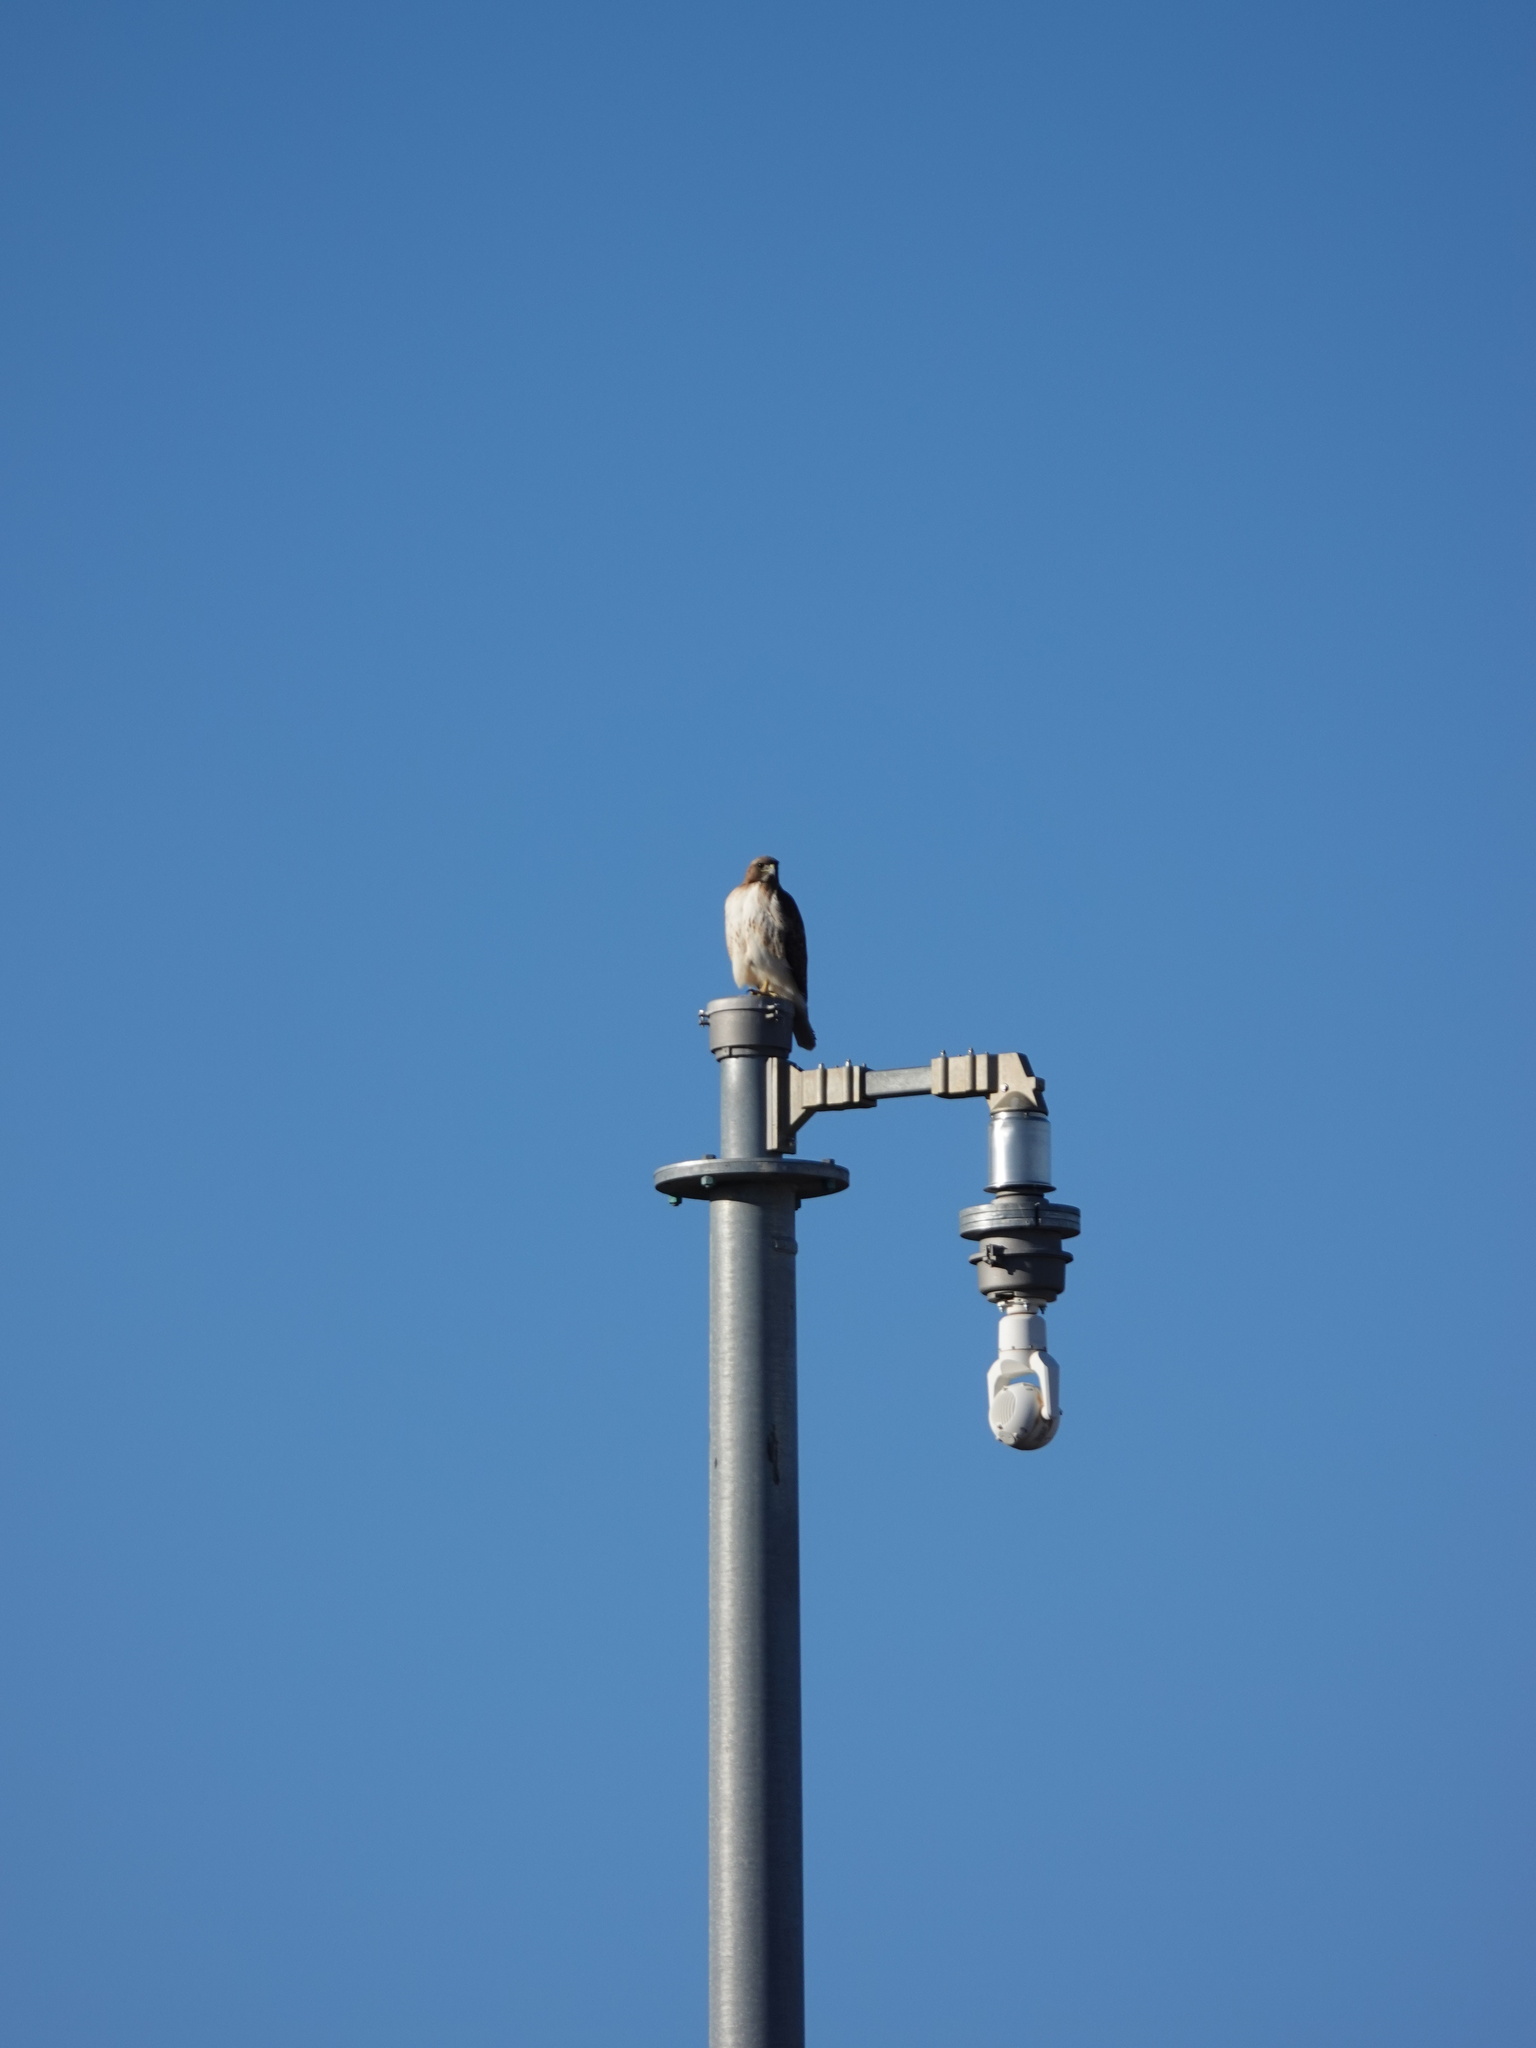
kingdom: Animalia
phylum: Chordata
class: Aves
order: Accipitriformes
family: Accipitridae
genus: Buteo
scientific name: Buteo jamaicensis
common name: Red-tailed hawk
